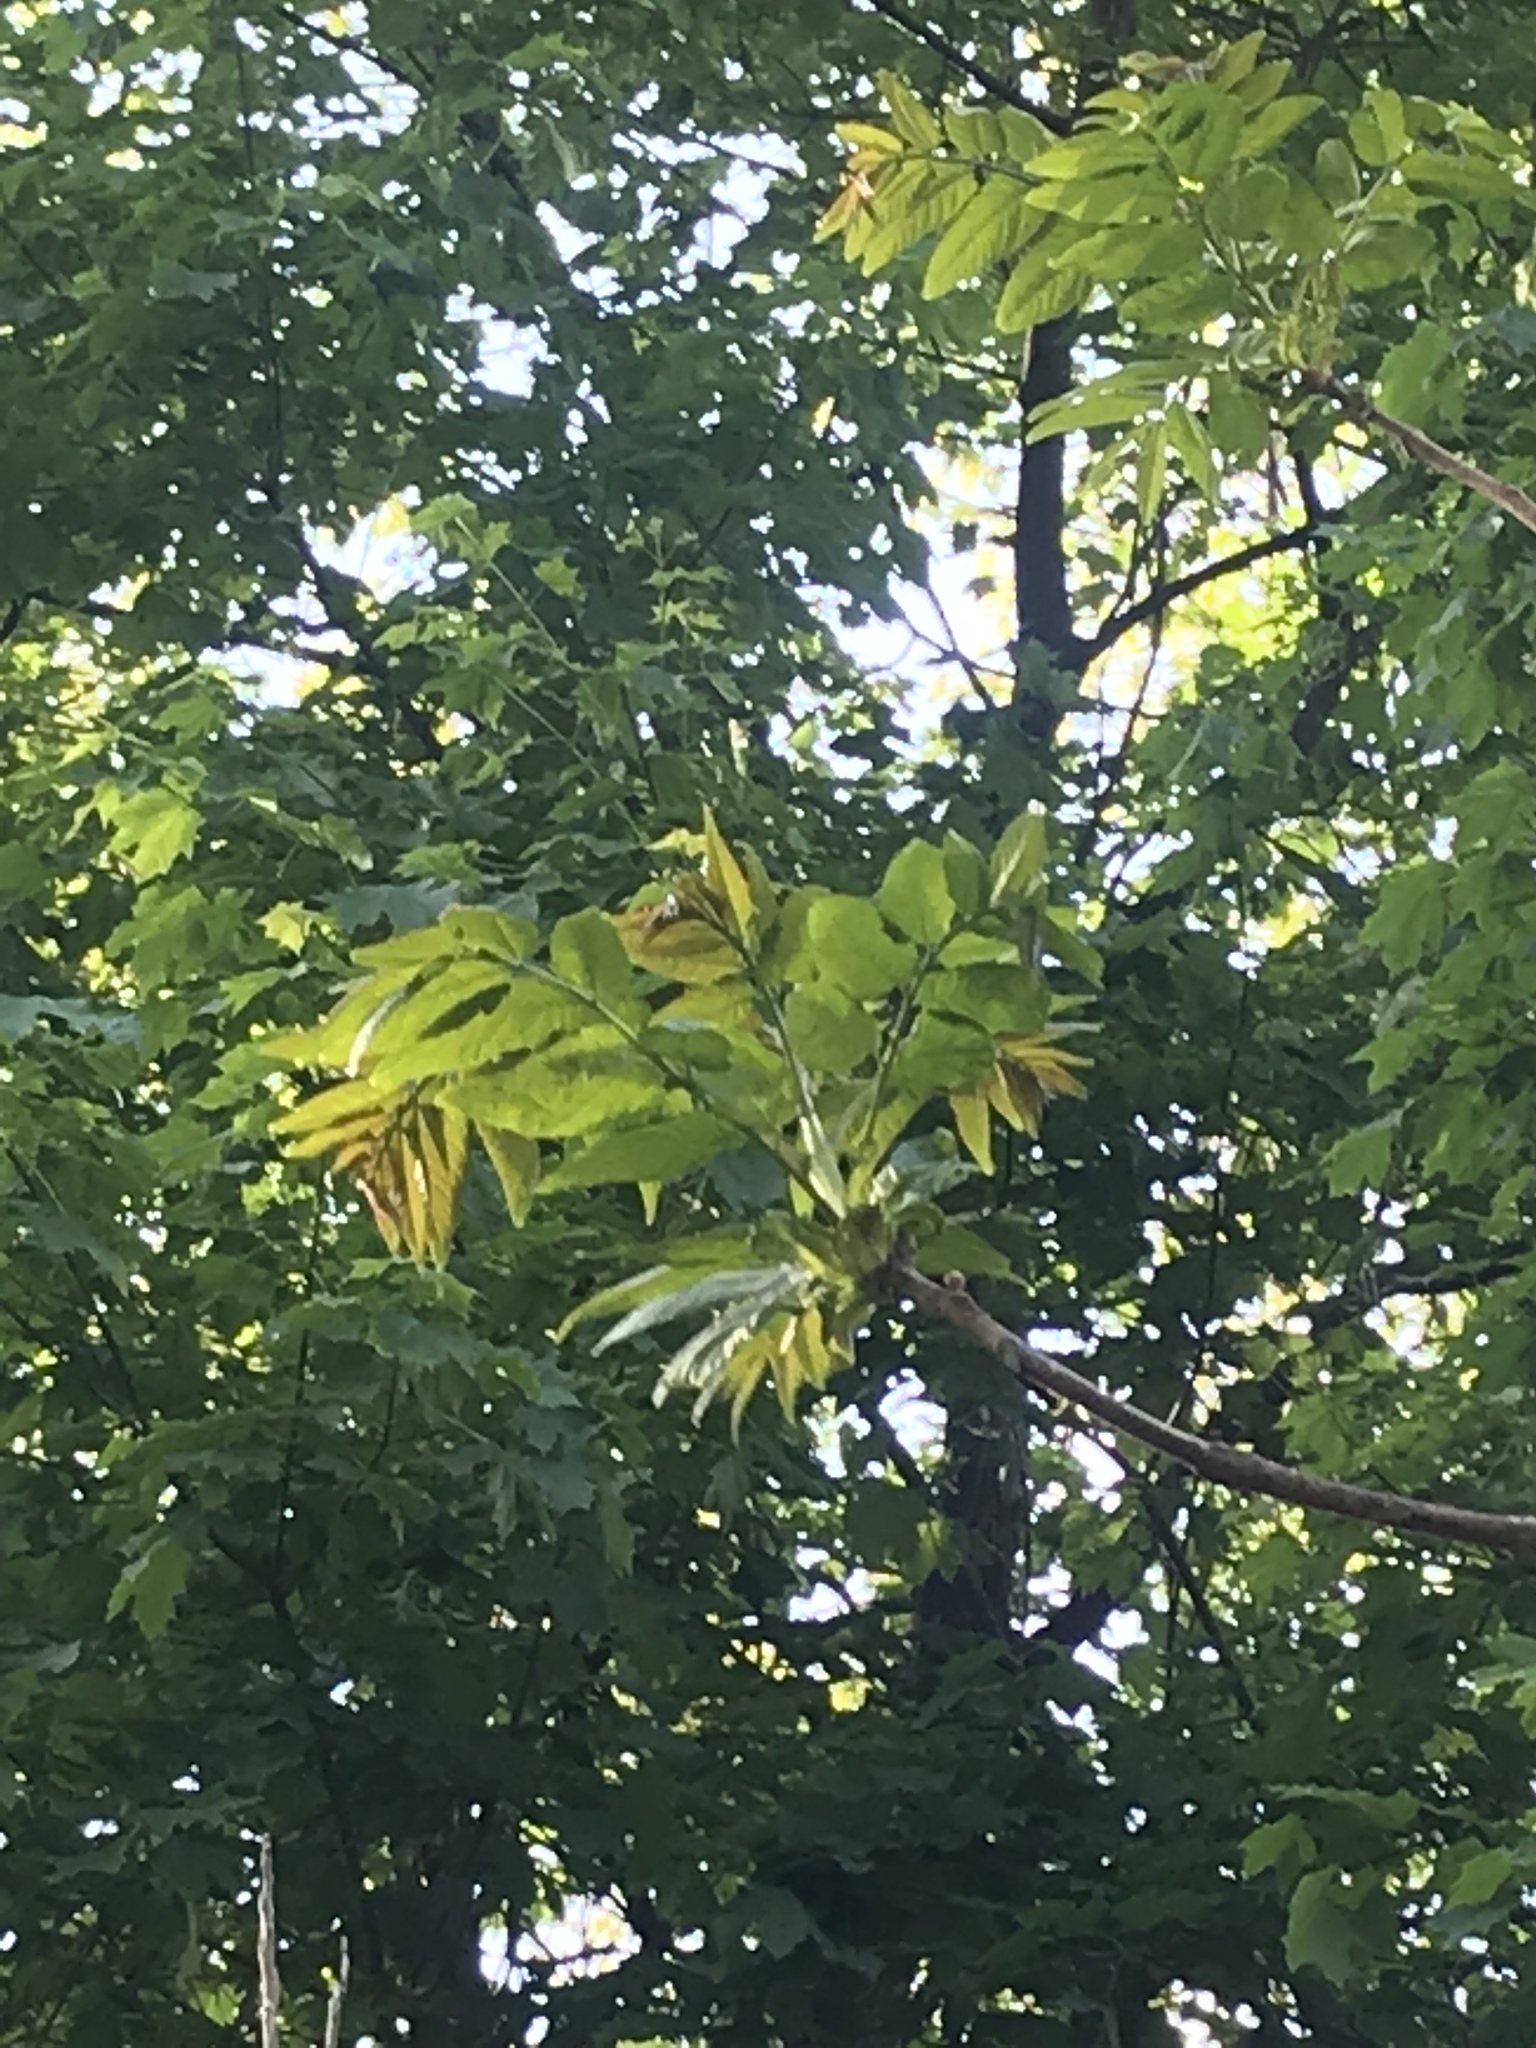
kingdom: Plantae
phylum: Tracheophyta
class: Magnoliopsida
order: Sapindales
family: Simaroubaceae
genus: Ailanthus
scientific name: Ailanthus altissima
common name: Tree-of-heaven
